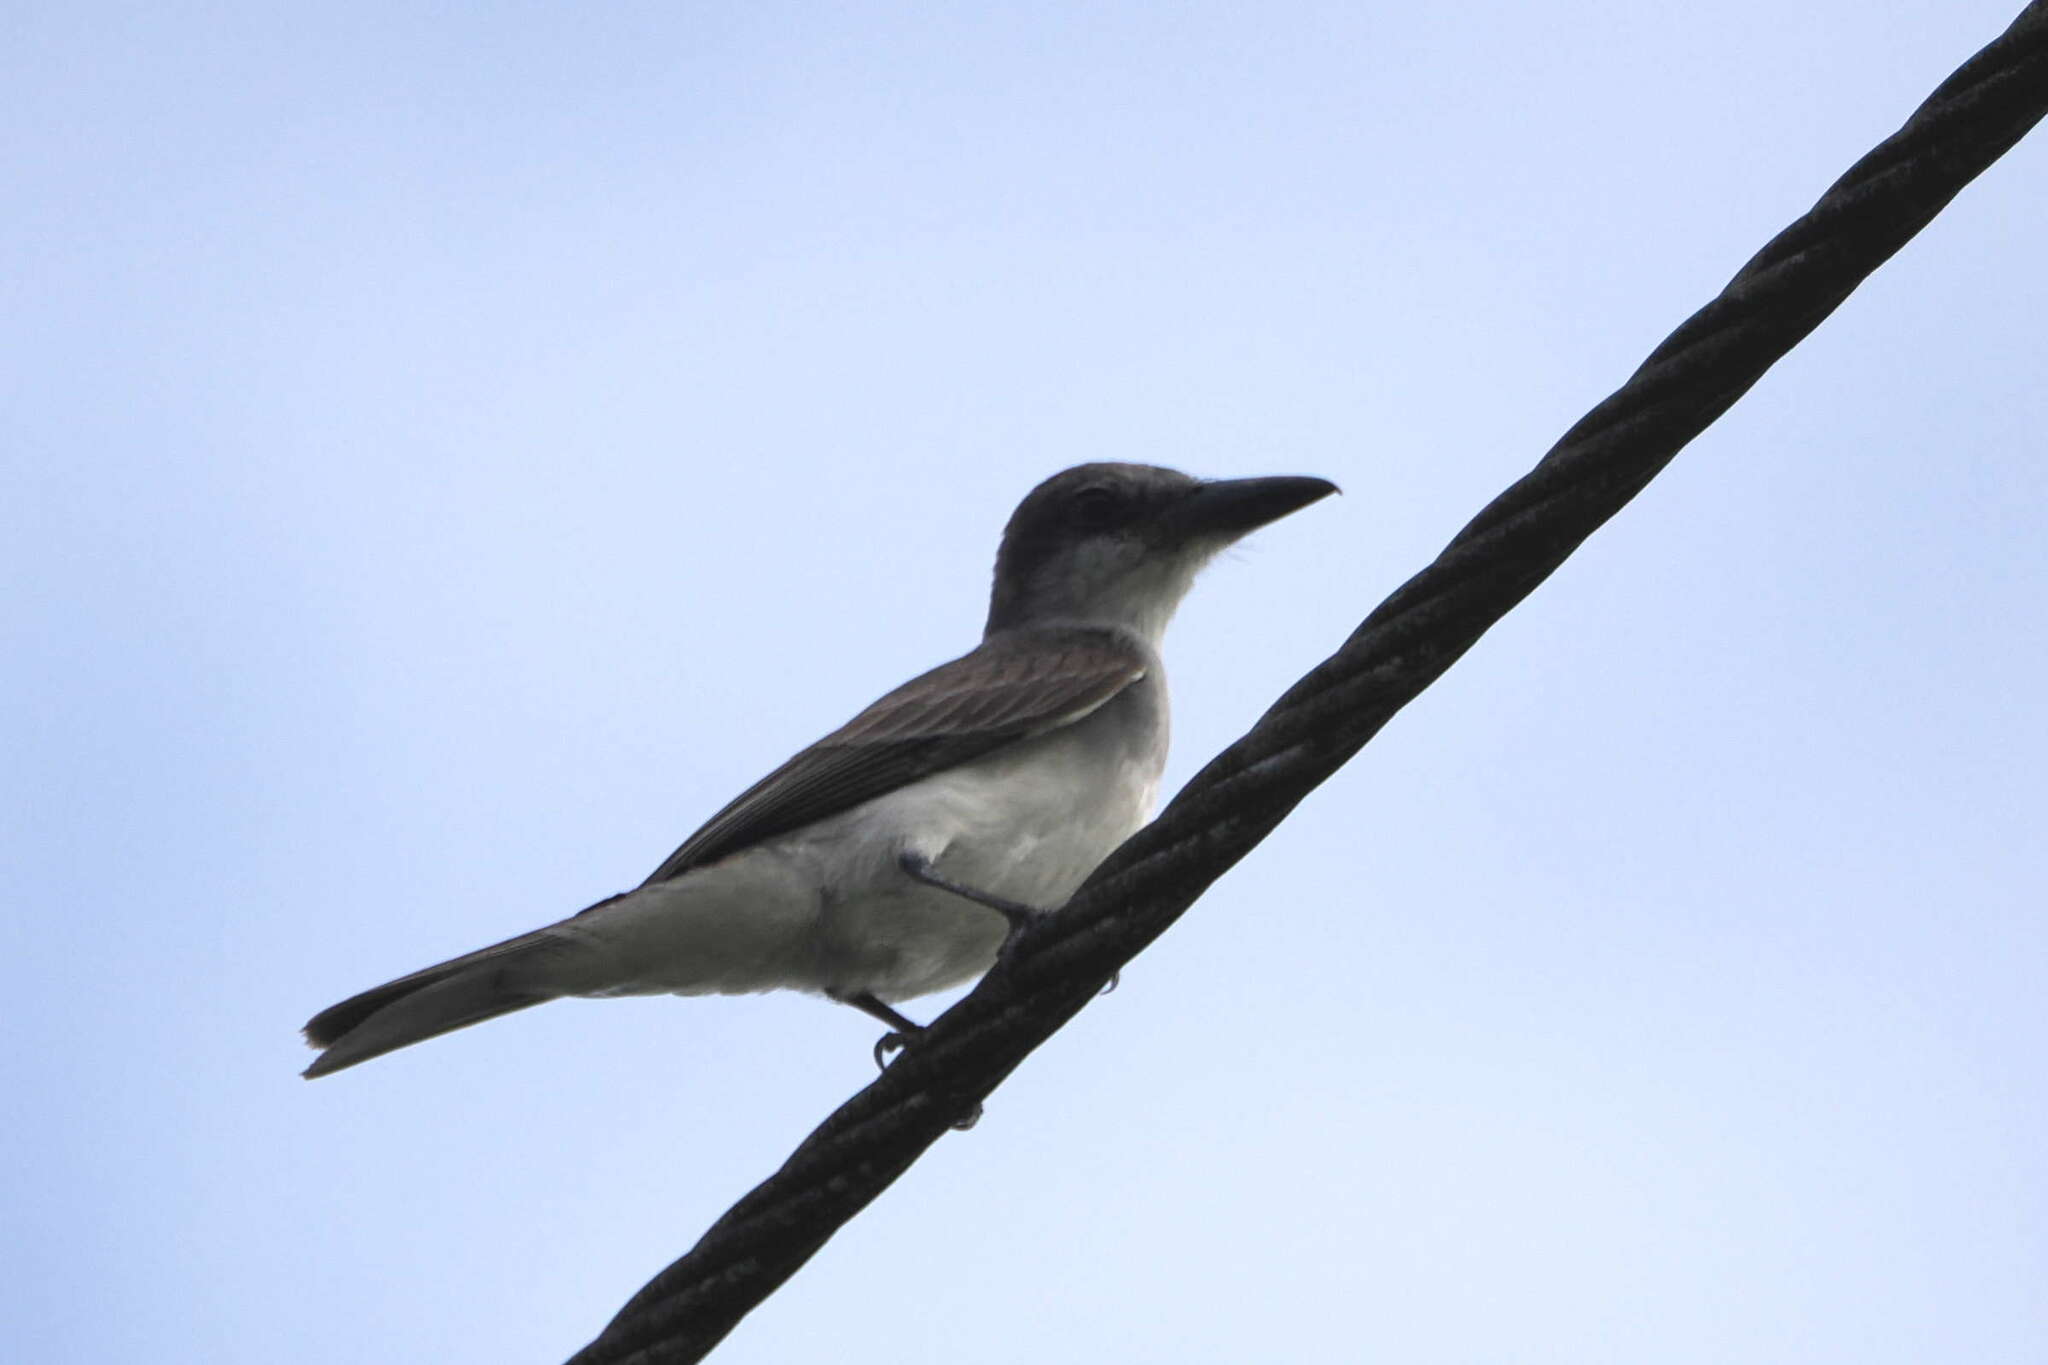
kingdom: Animalia
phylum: Chordata
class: Aves
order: Passeriformes
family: Tyrannidae
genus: Tyrannus
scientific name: Tyrannus dominicensis
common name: Gray kingbird
